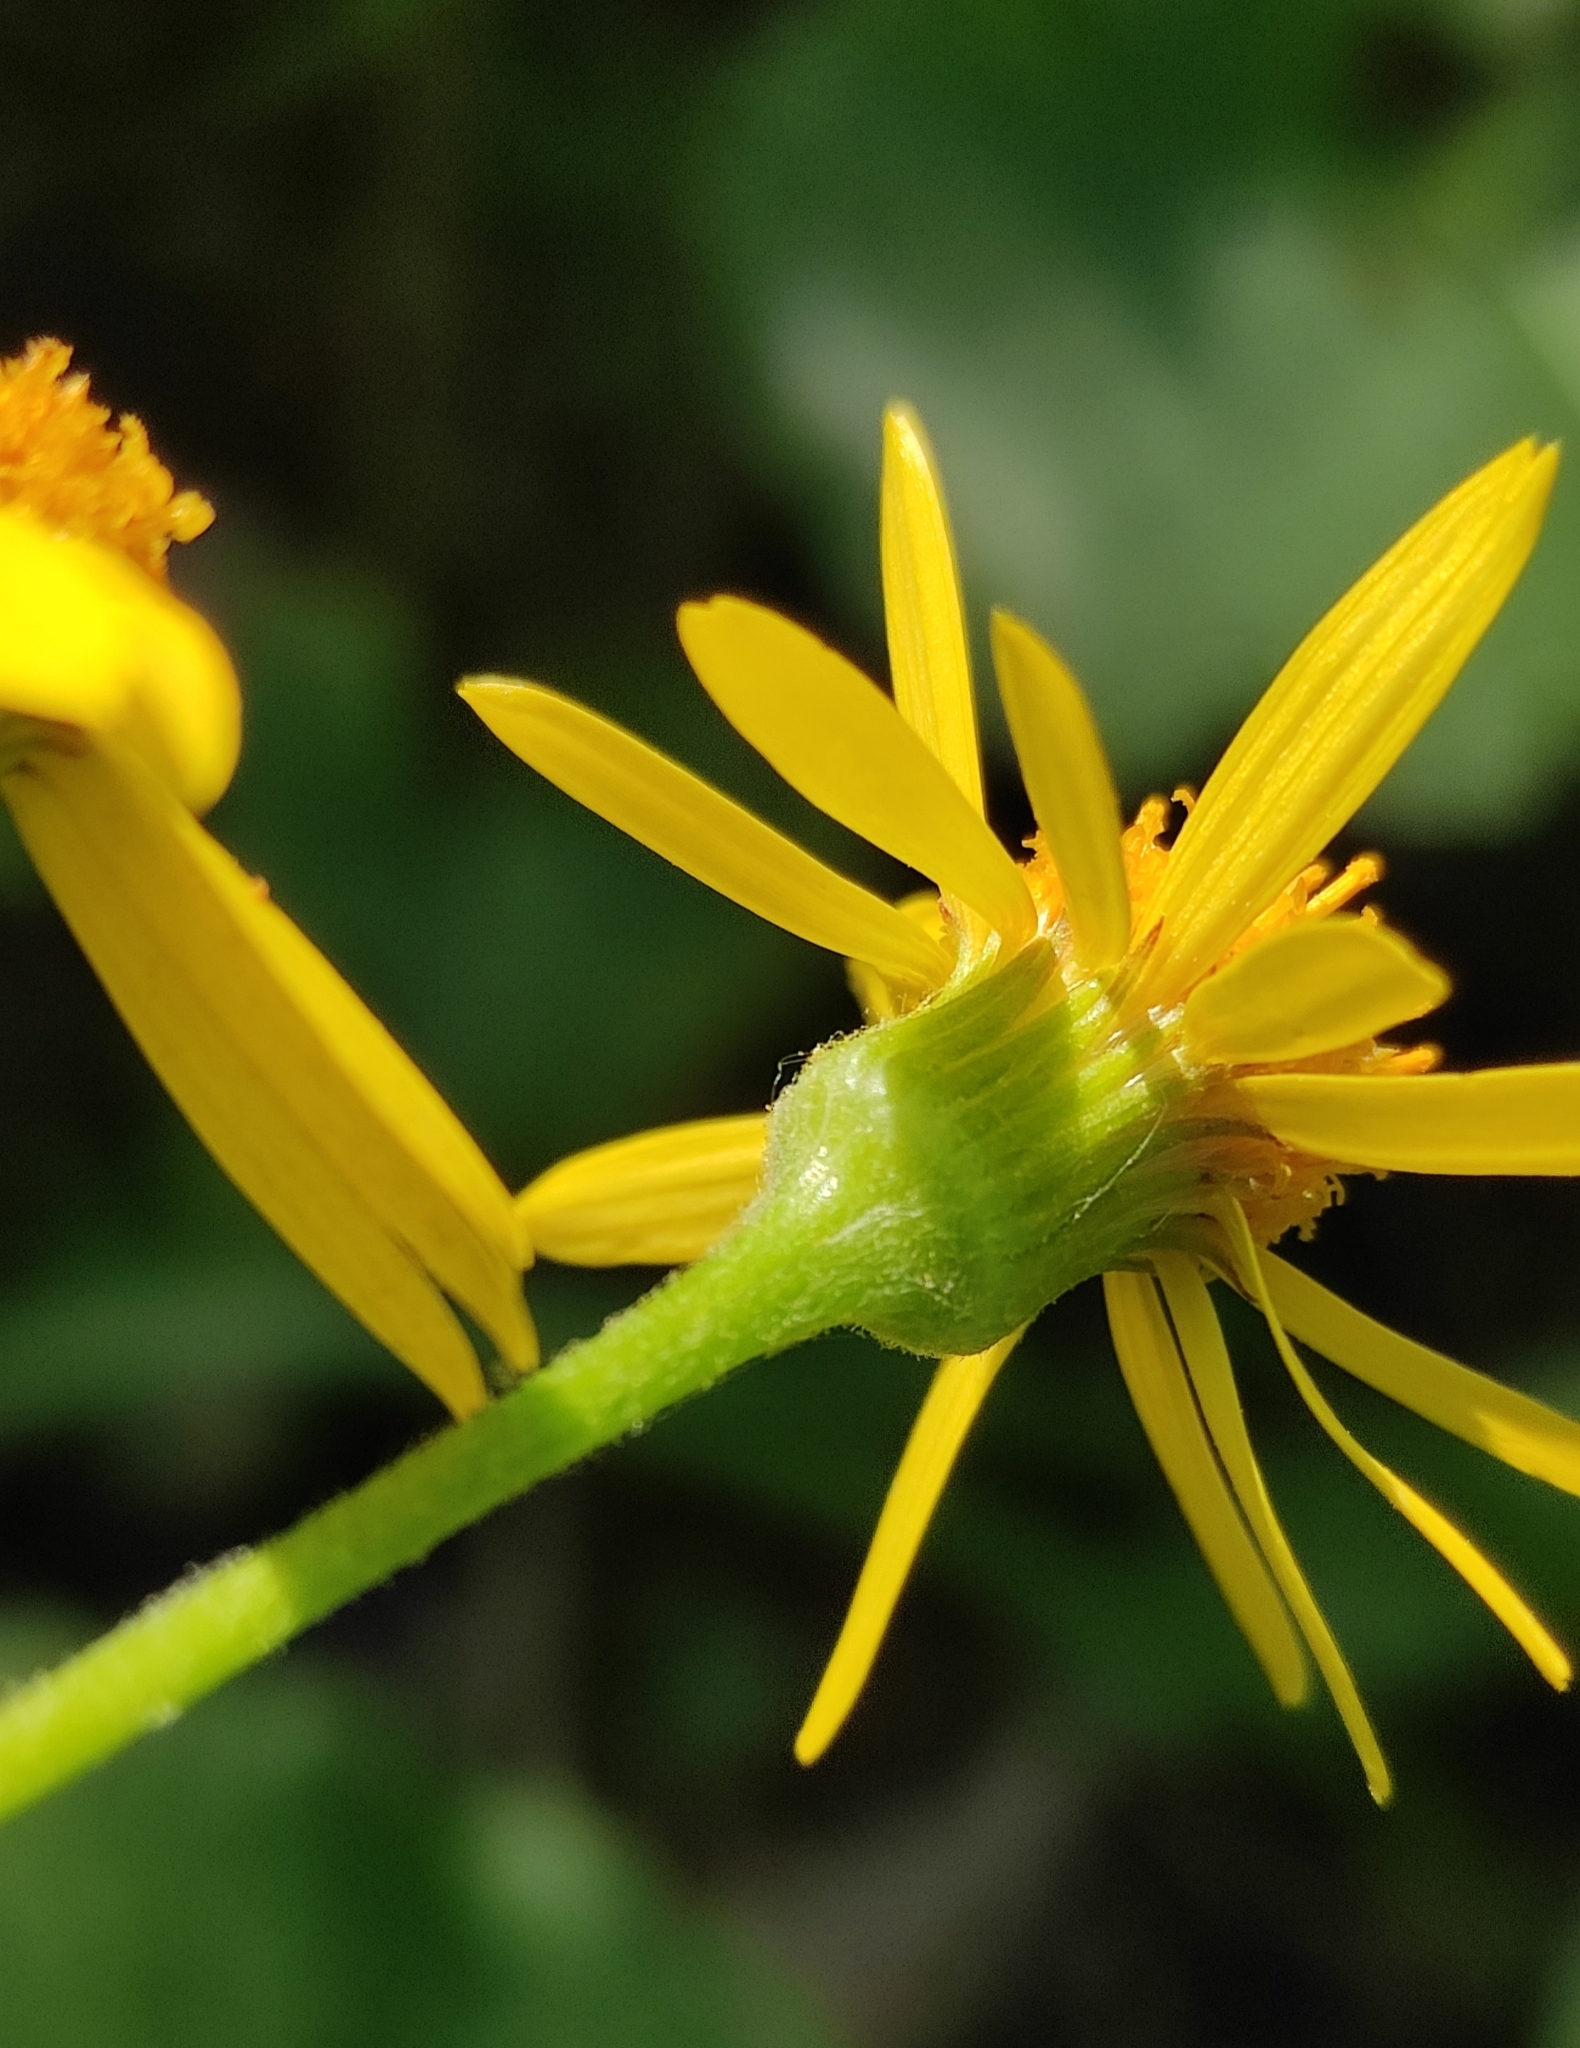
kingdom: Plantae
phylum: Tracheophyta
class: Magnoliopsida
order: Asterales
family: Asteraceae
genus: Tephroseris
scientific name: Tephroseris integrifolia
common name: Field fleawort
